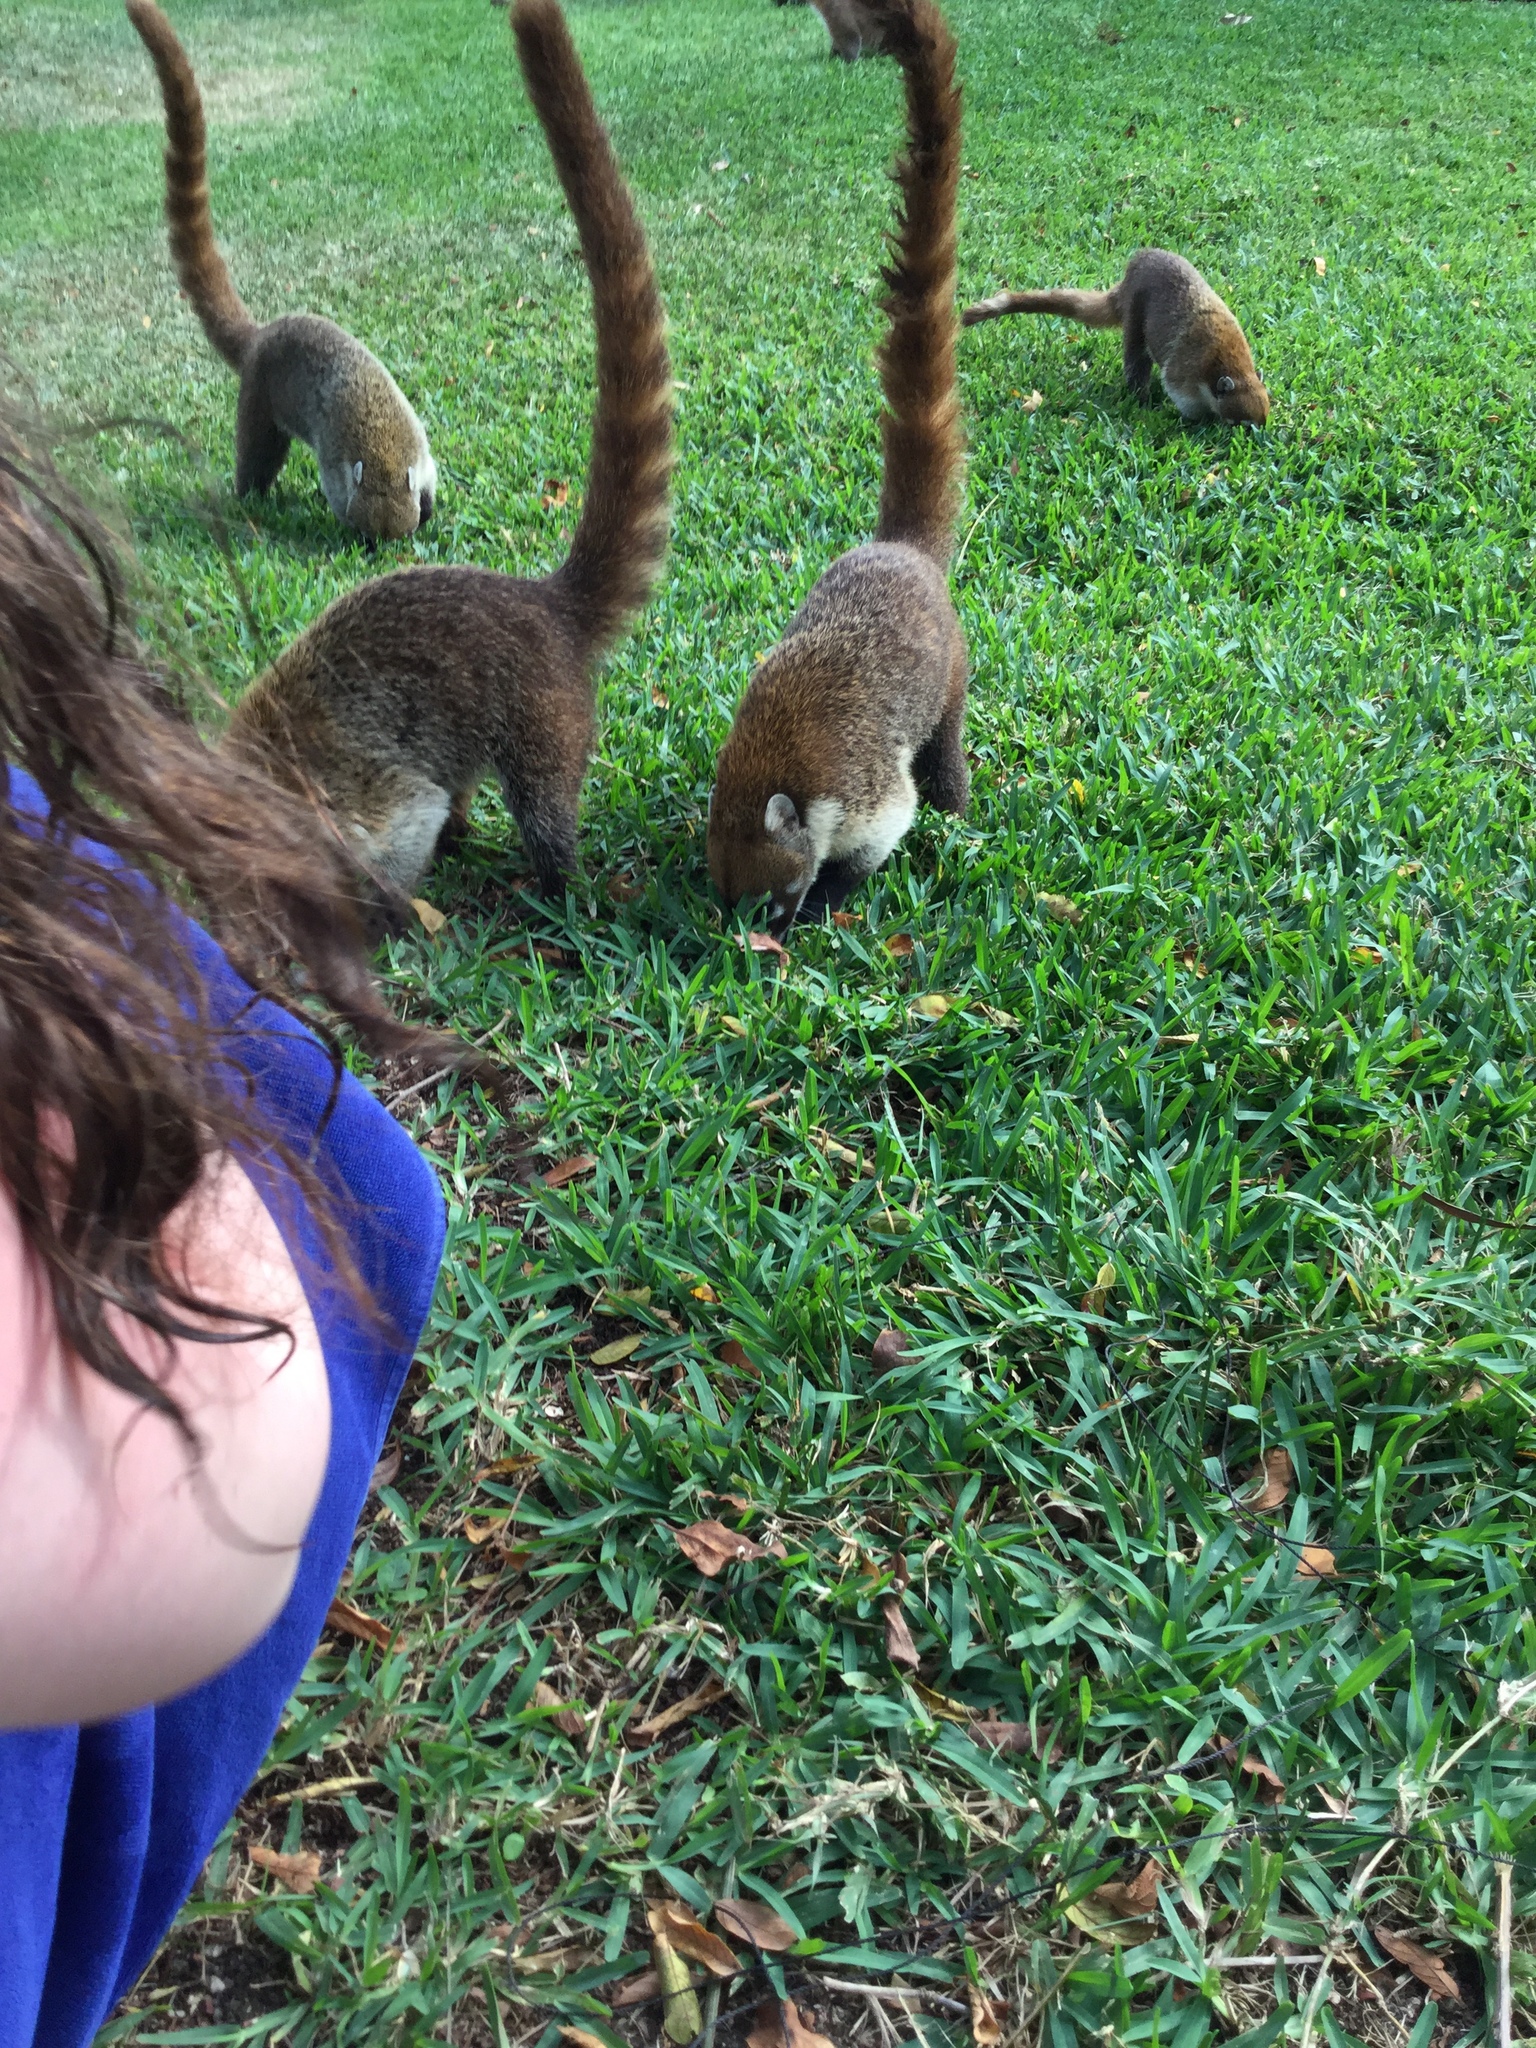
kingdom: Animalia
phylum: Chordata
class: Mammalia
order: Carnivora
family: Procyonidae
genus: Nasua
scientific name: Nasua narica
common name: White-nosed coati
